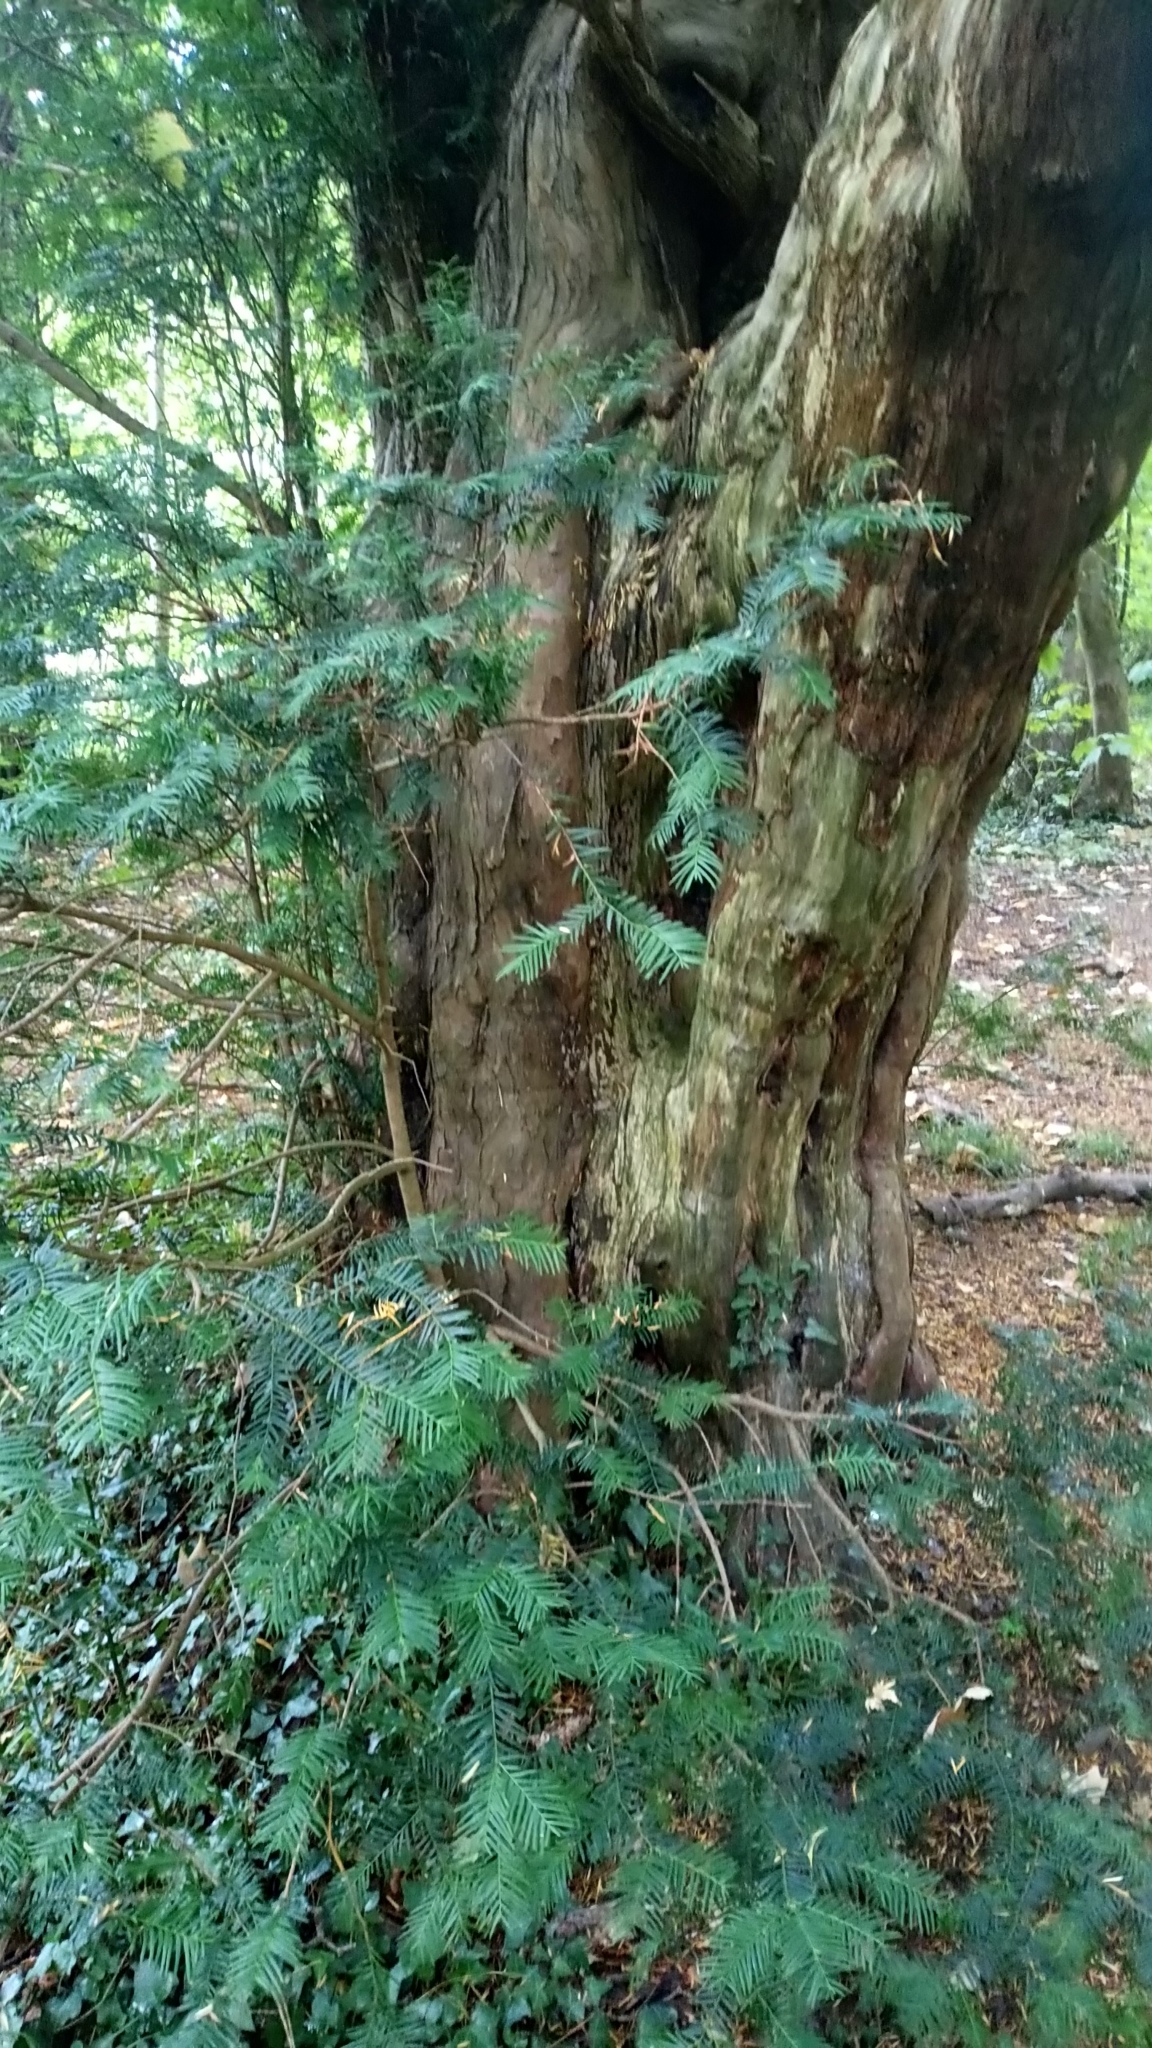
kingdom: Plantae
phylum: Tracheophyta
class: Pinopsida
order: Pinales
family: Taxaceae
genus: Taxus
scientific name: Taxus baccata
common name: Yew
